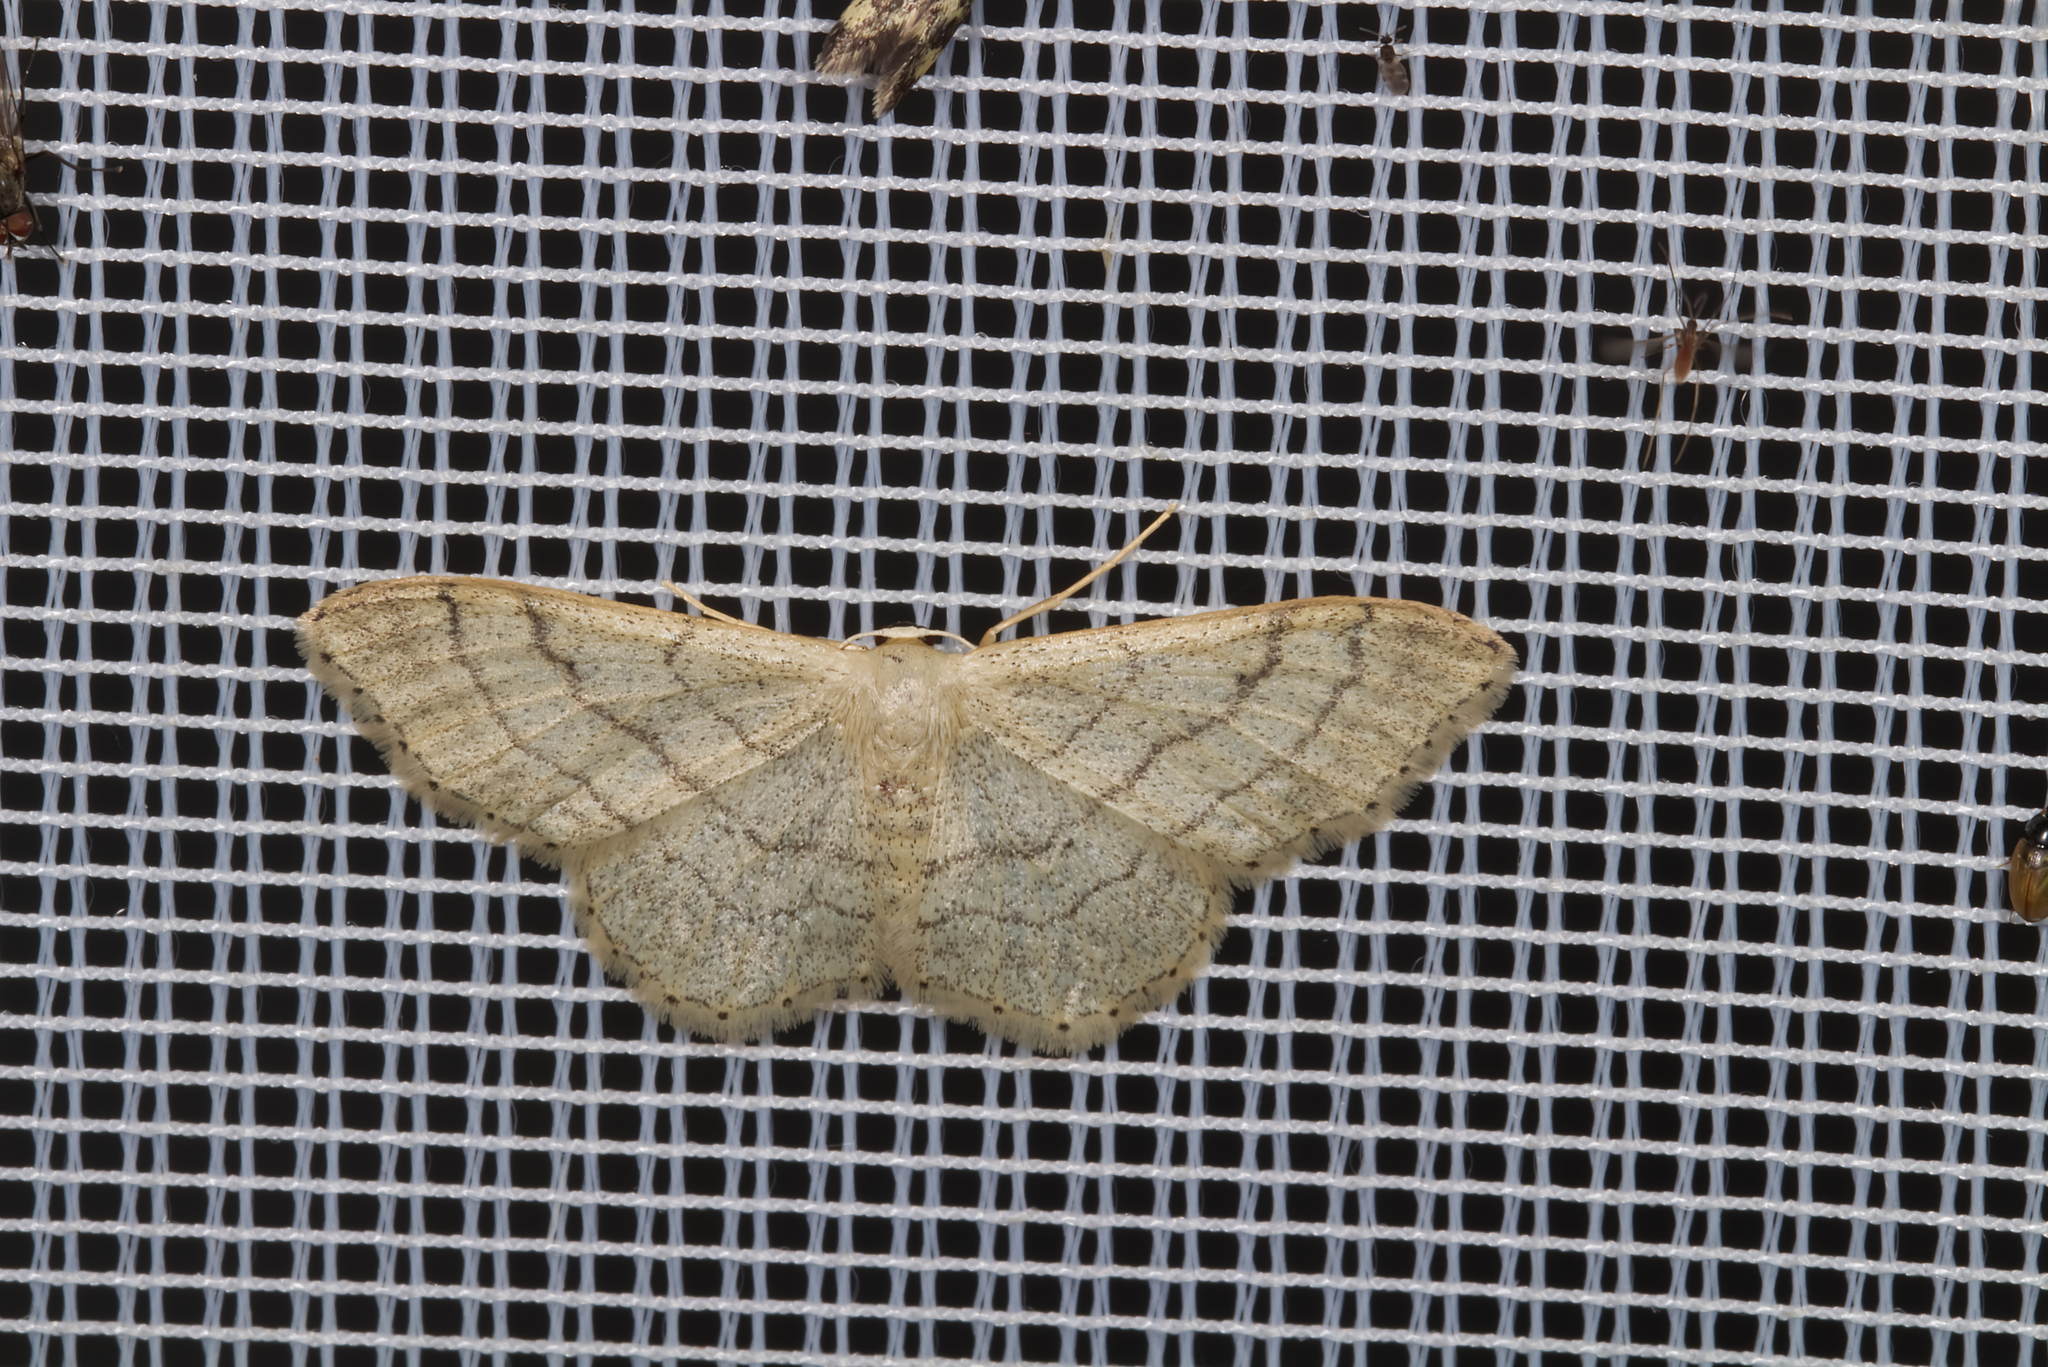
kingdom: Animalia
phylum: Arthropoda
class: Insecta
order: Lepidoptera
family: Geometridae
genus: Idaea
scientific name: Idaea aversata
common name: Riband wave
